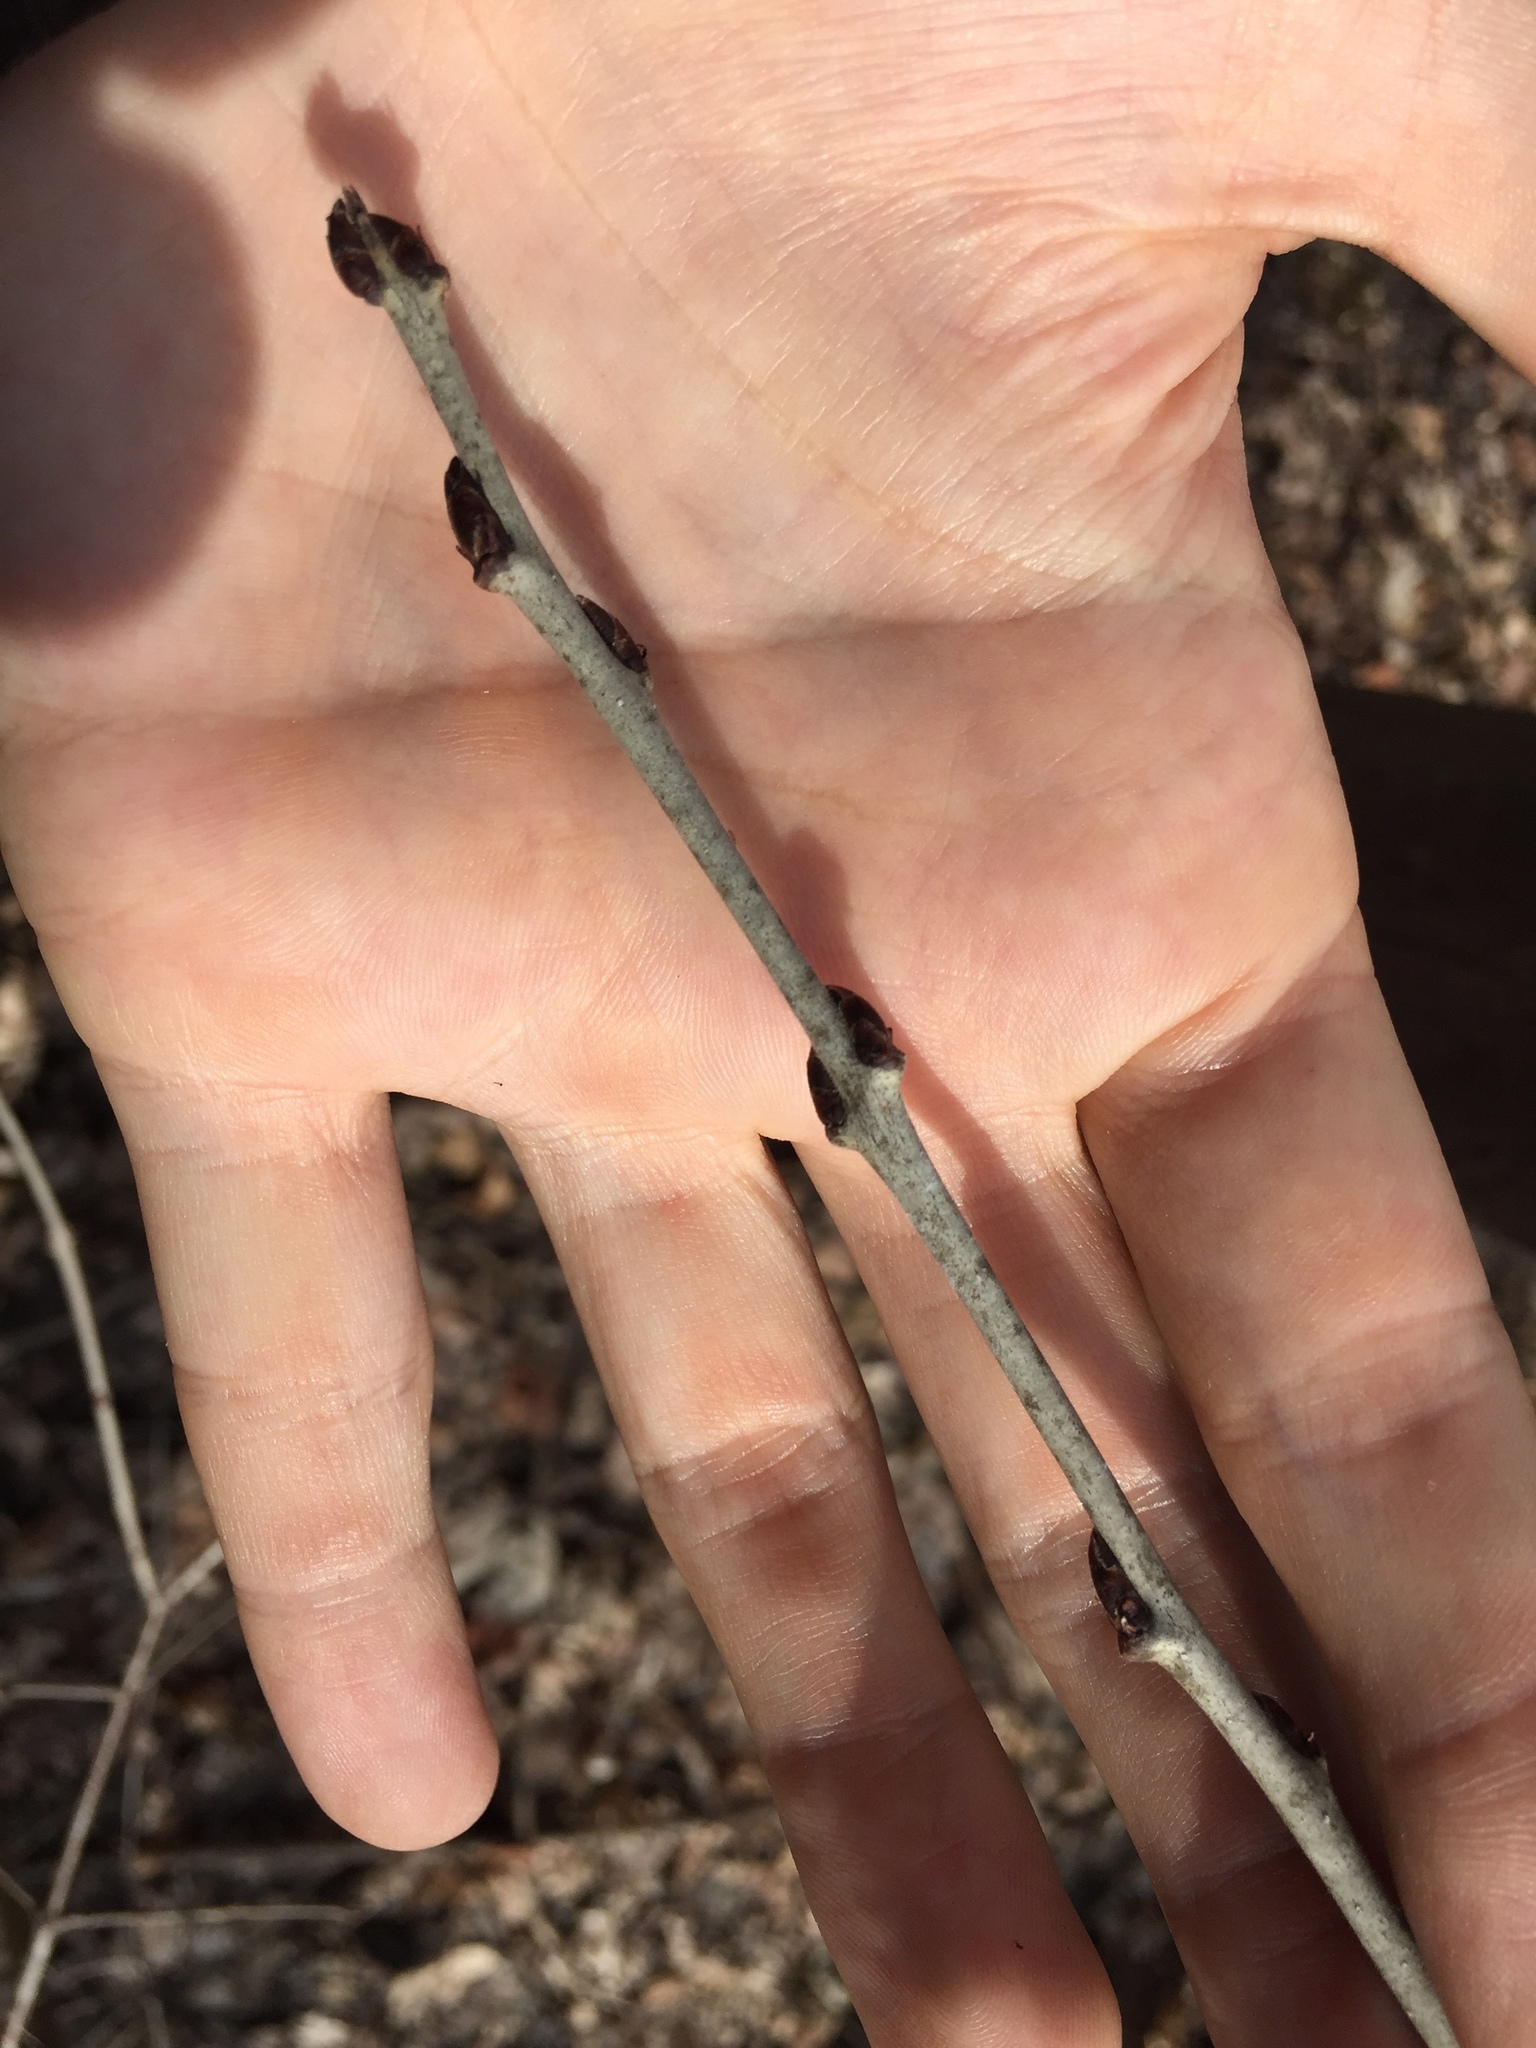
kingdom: Plantae
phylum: Tracheophyta
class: Magnoliopsida
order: Rosales
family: Rhamnaceae
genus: Rhamnus
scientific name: Rhamnus cathartica
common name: Common buckthorn
